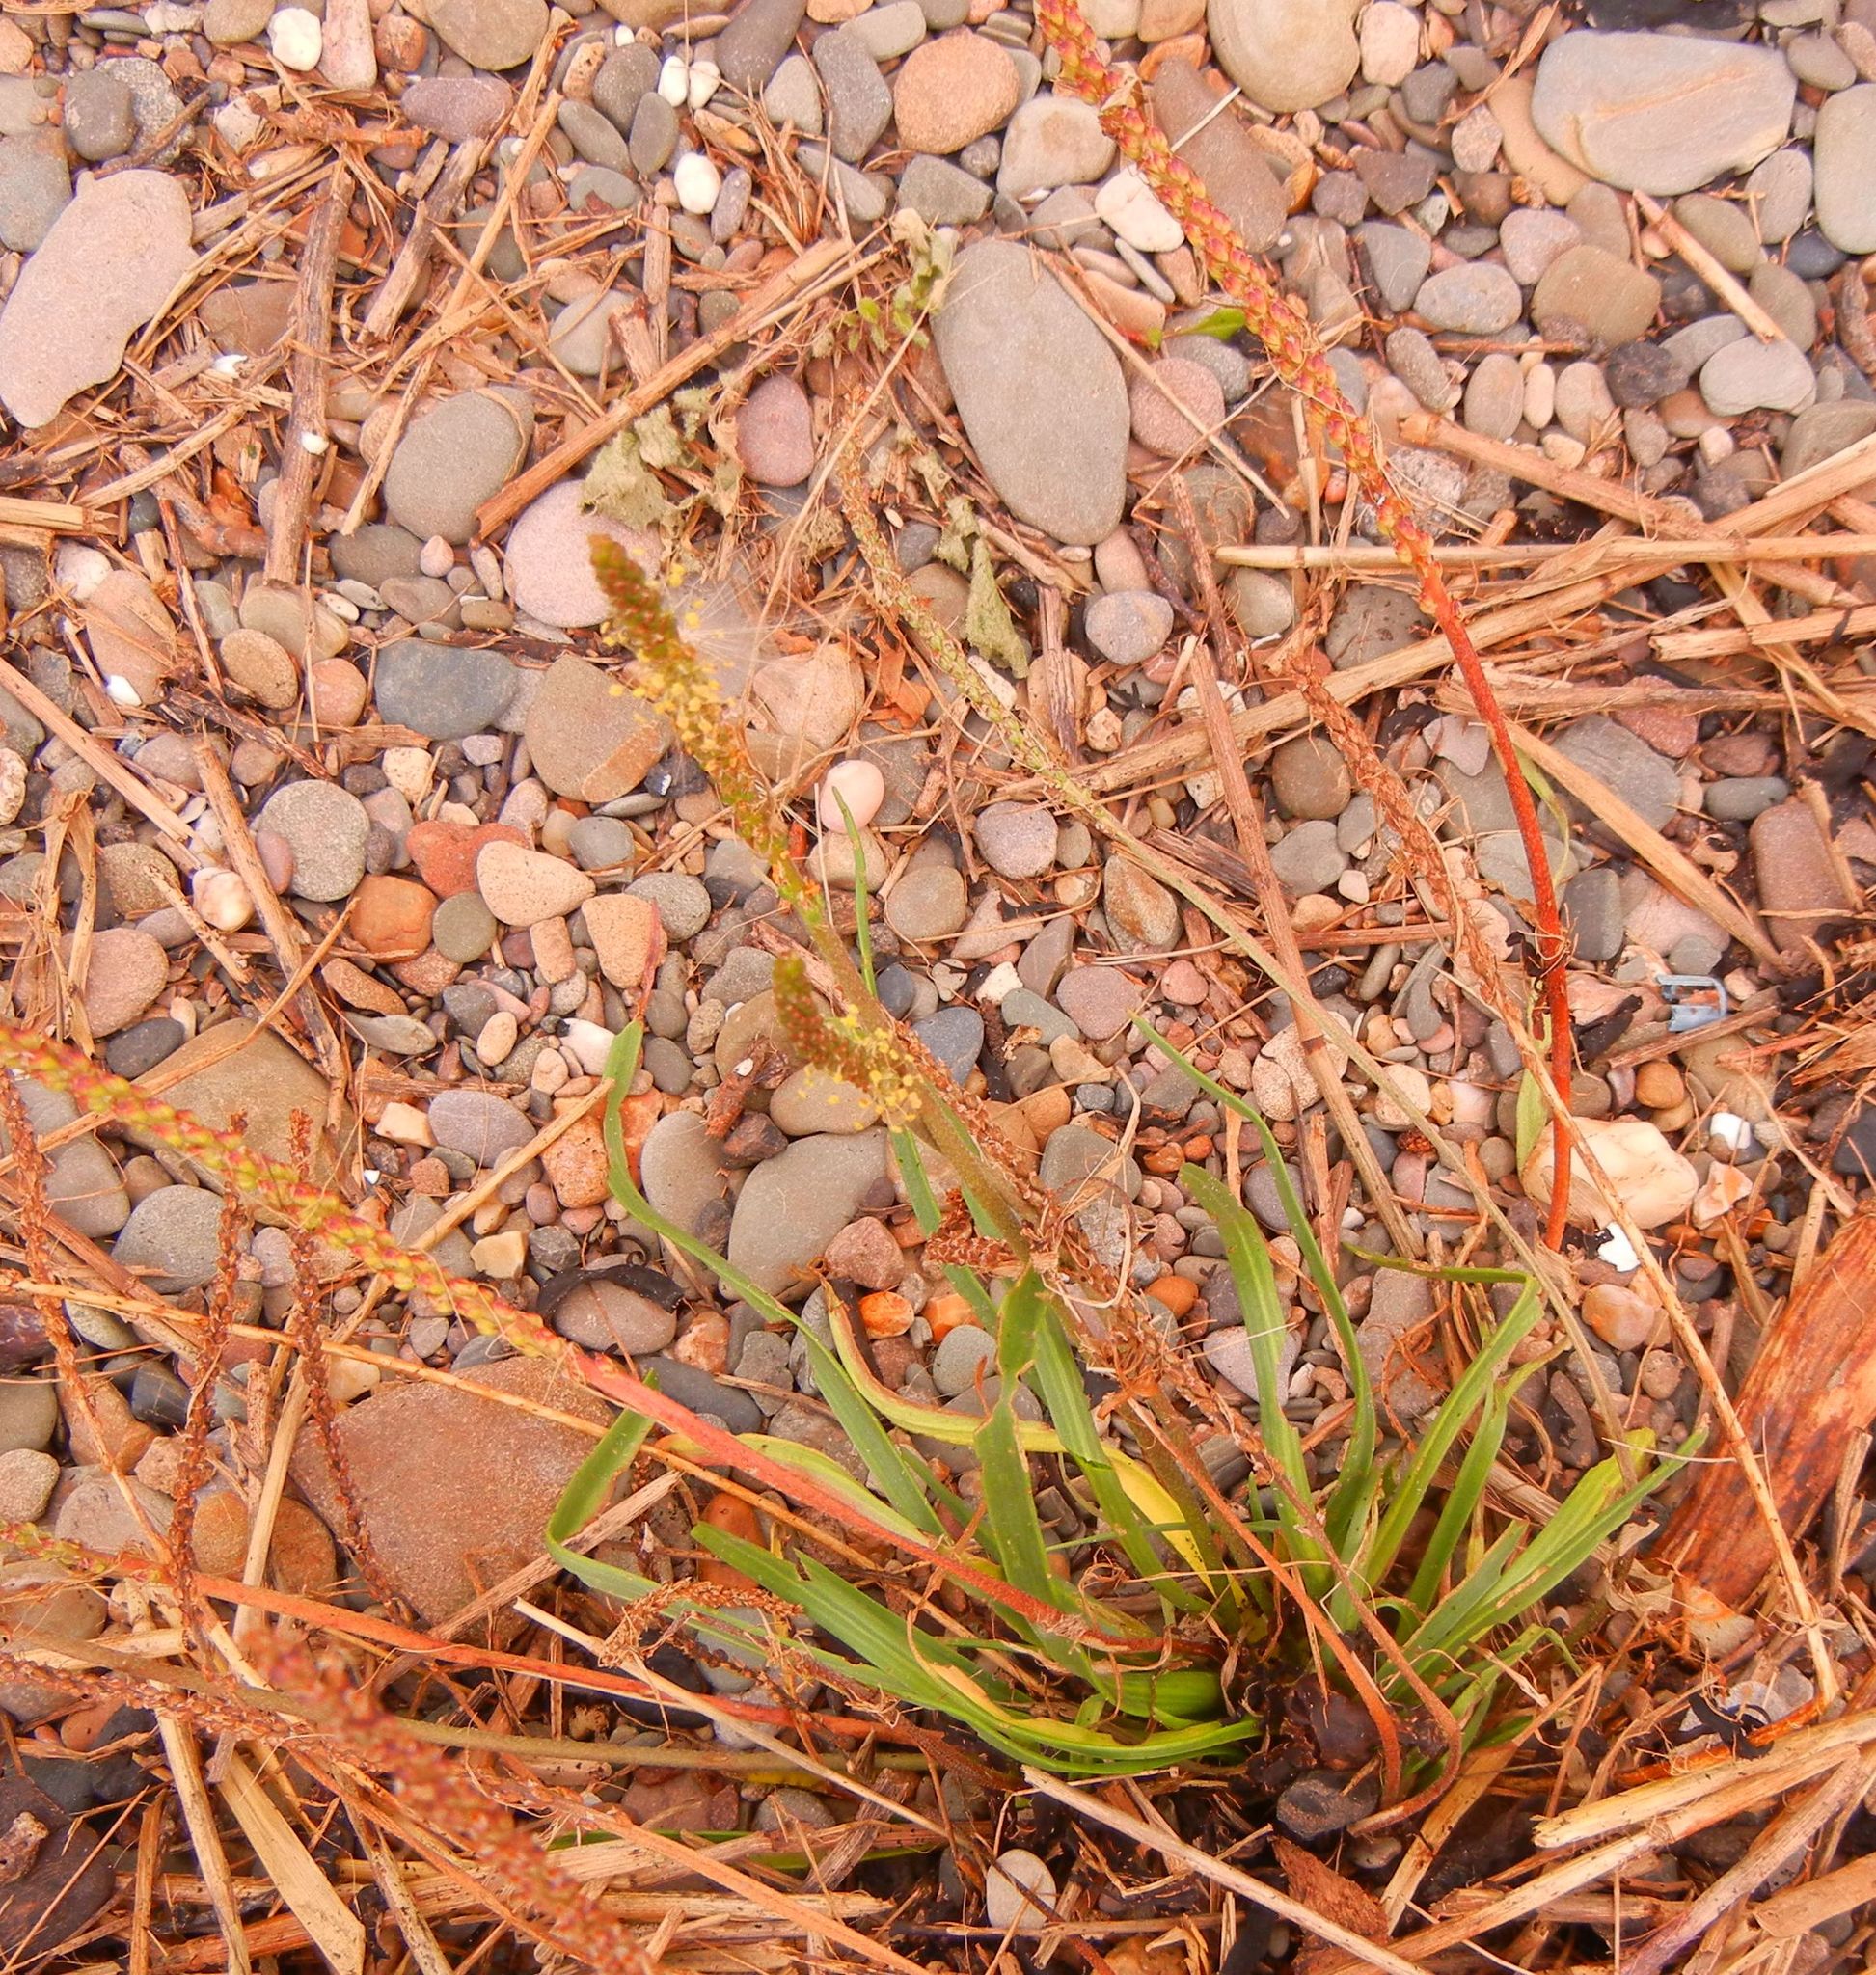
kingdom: Plantae
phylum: Tracheophyta
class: Magnoliopsida
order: Lamiales
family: Plantaginaceae
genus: Plantago
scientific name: Plantago maritima
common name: Sea plantain
